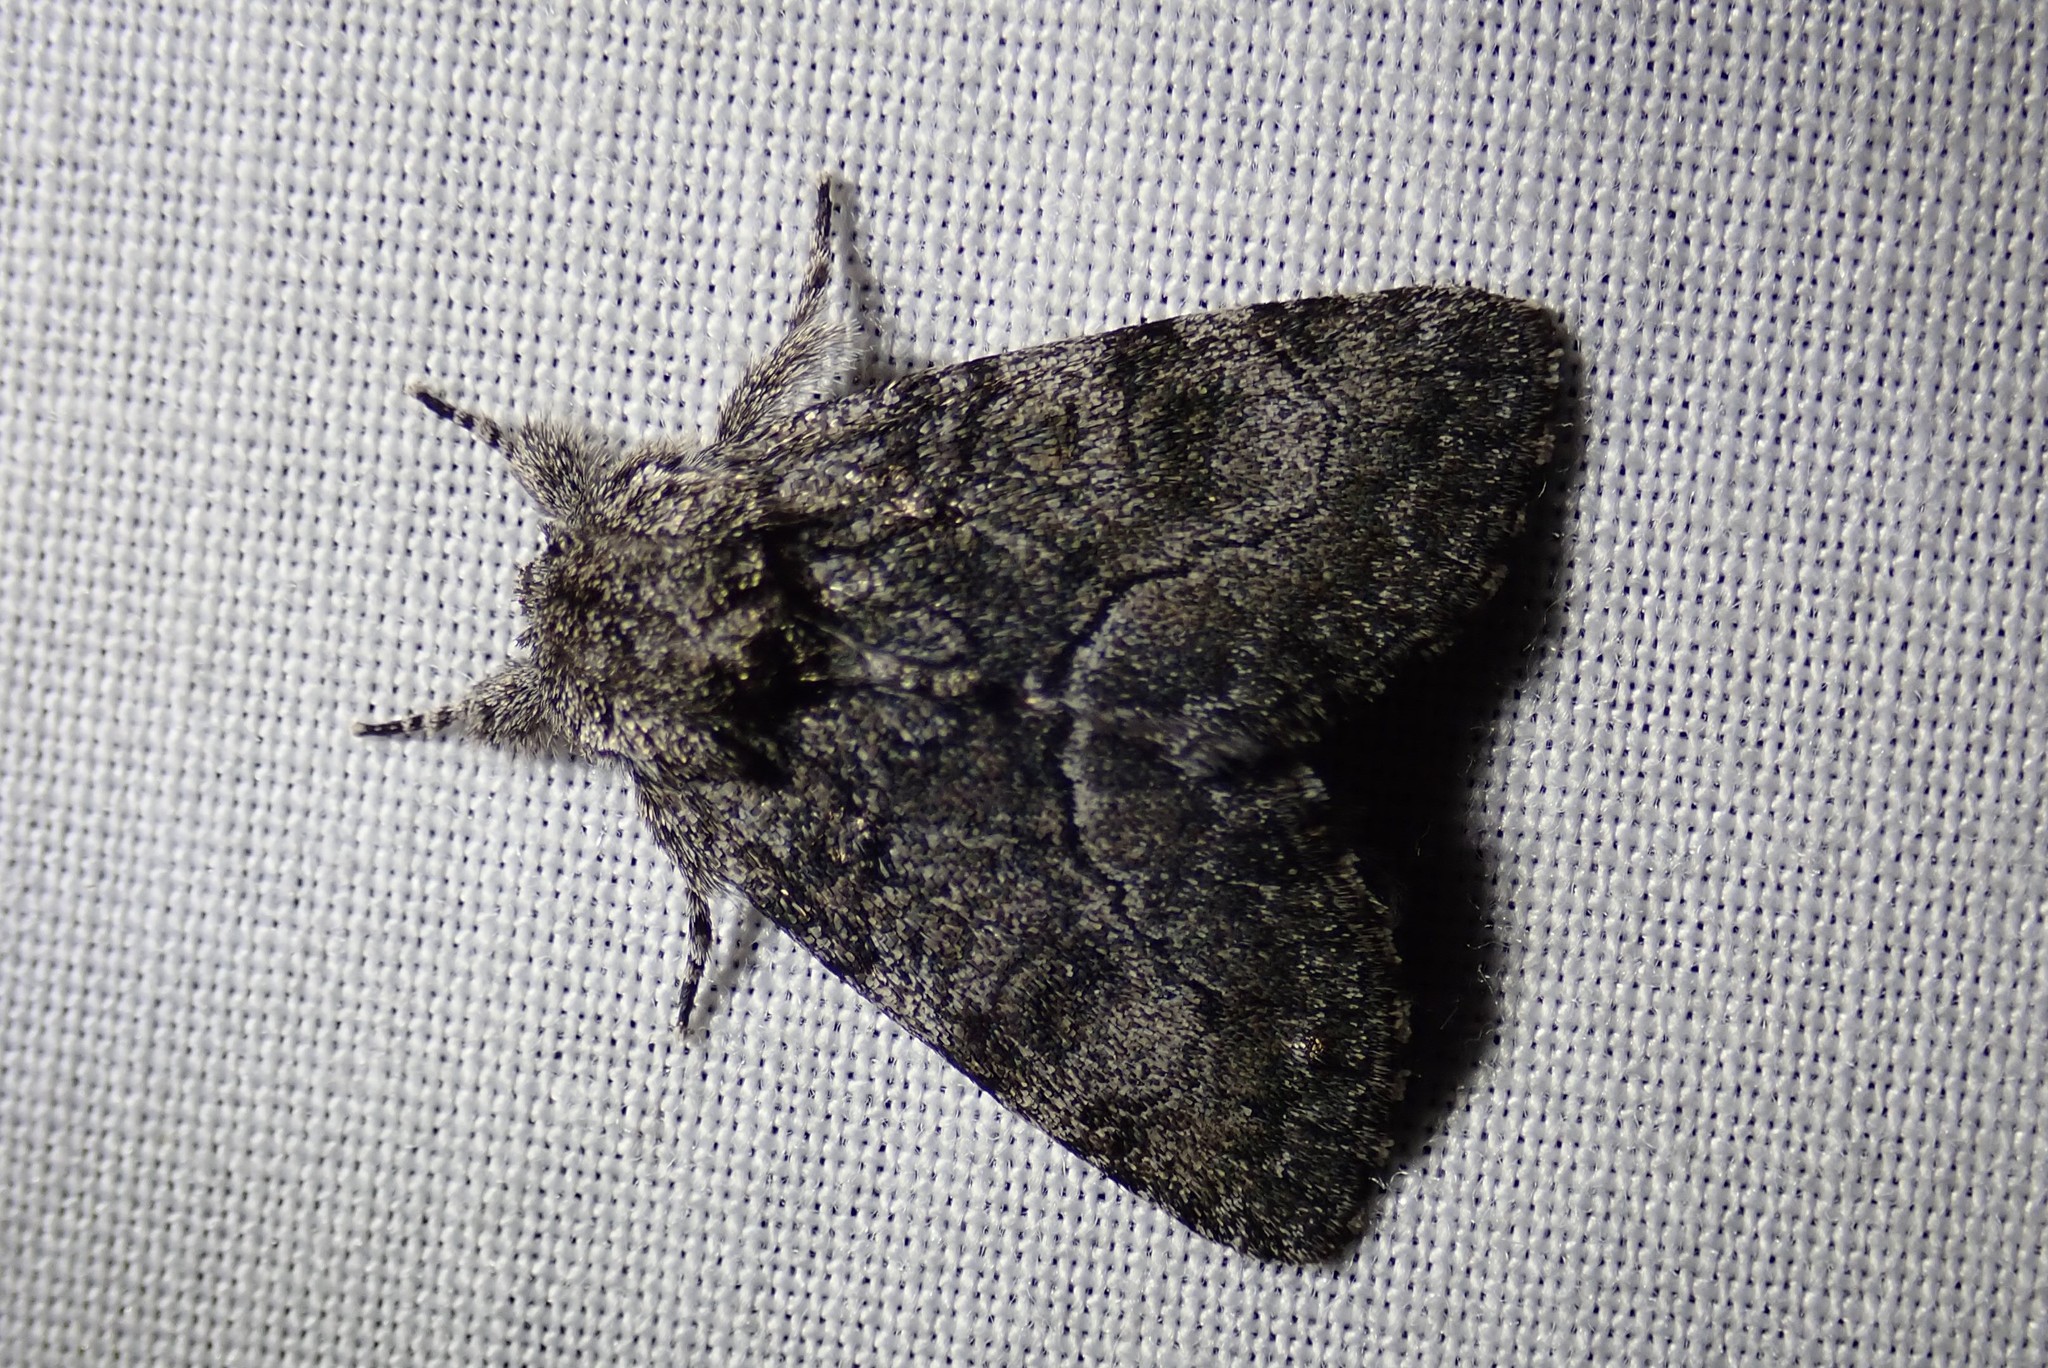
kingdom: Animalia
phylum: Arthropoda
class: Insecta
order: Lepidoptera
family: Noctuidae
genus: Raphia
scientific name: Raphia frater
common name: Brother
